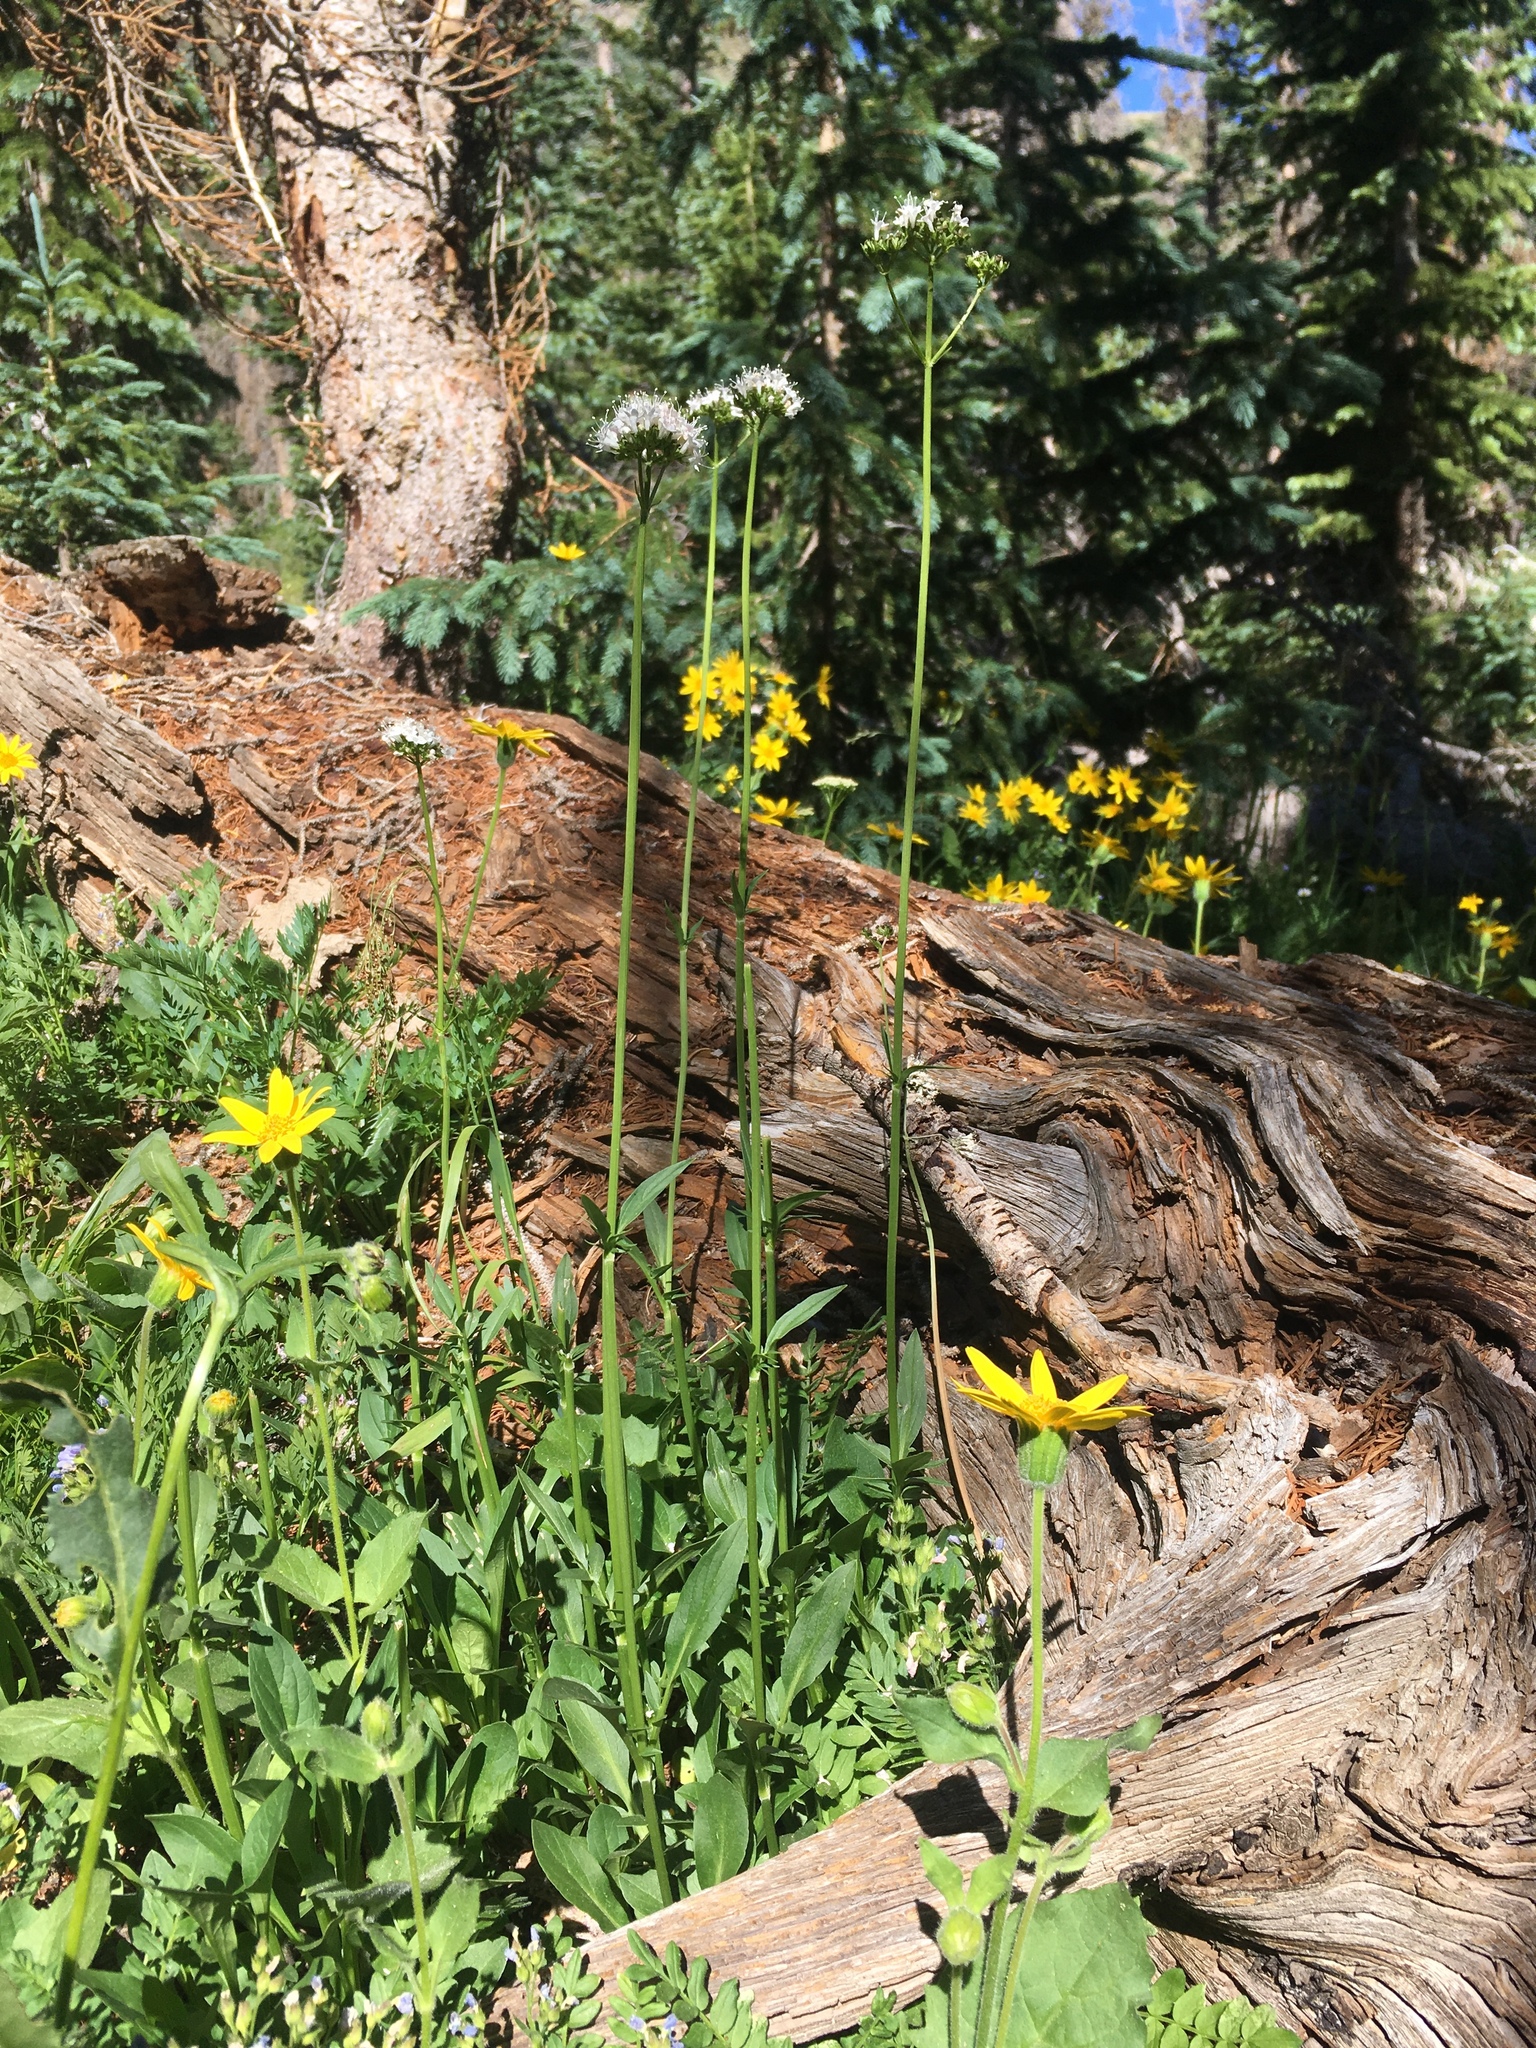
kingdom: Plantae
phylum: Tracheophyta
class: Magnoliopsida
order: Dipsacales
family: Caprifoliaceae
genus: Valeriana
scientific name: Valeriana acutiloba
